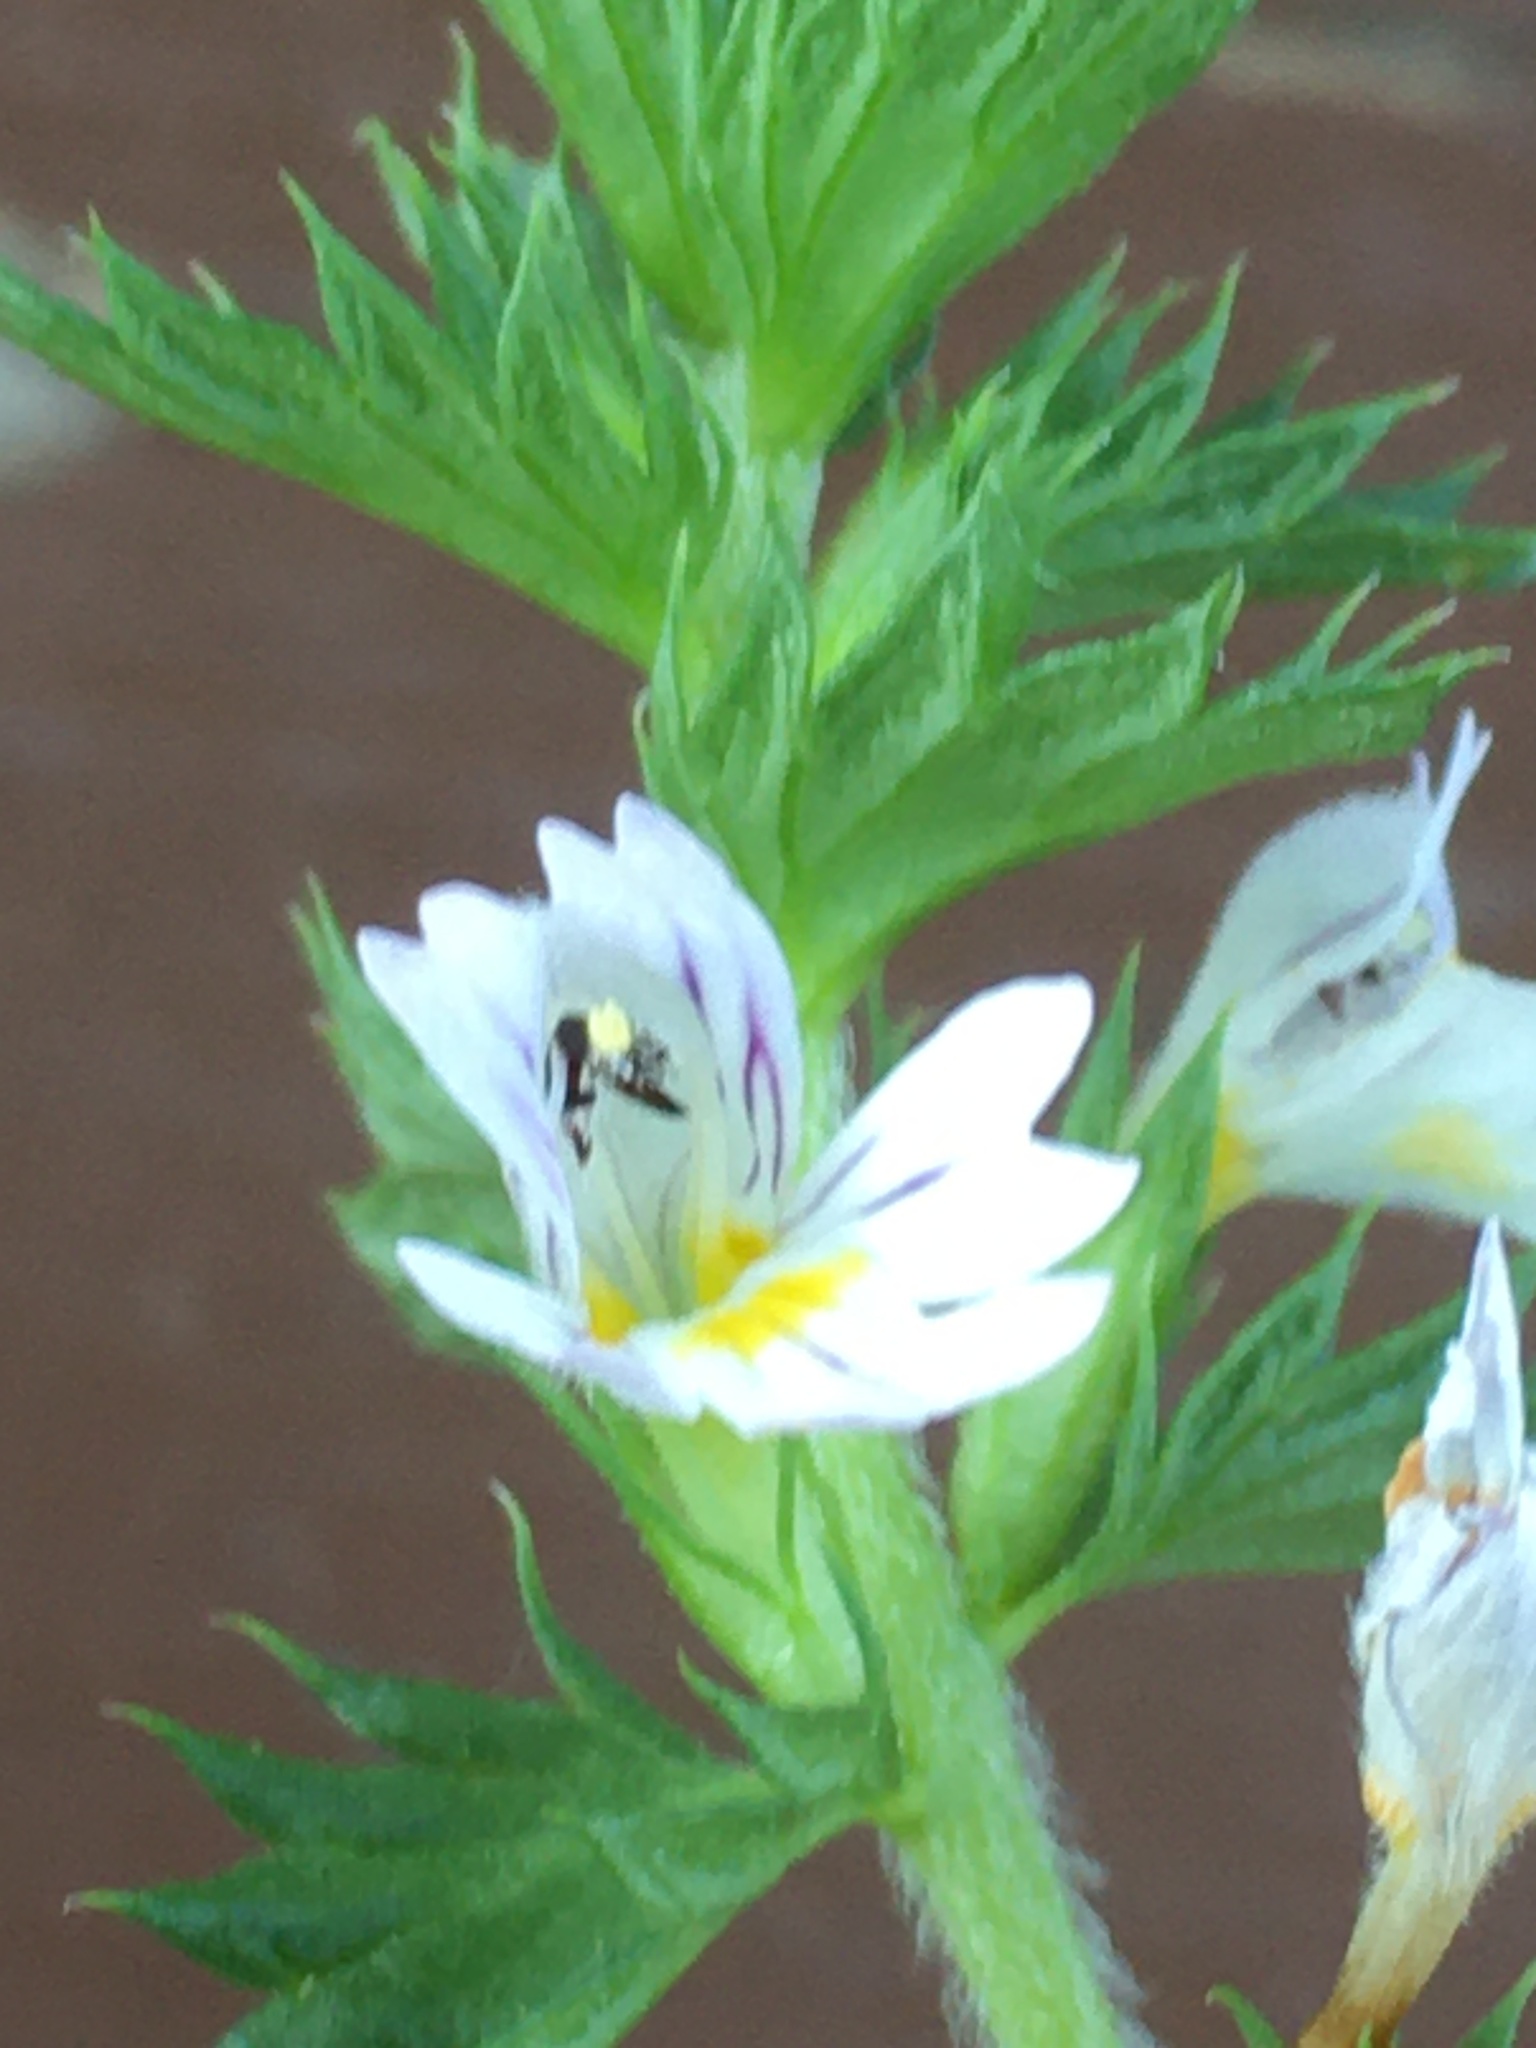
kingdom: Plantae
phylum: Tracheophyta
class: Magnoliopsida
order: Lamiales
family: Orobanchaceae
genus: Euphrasia
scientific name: Euphrasia nemorosa
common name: Common eyebright
